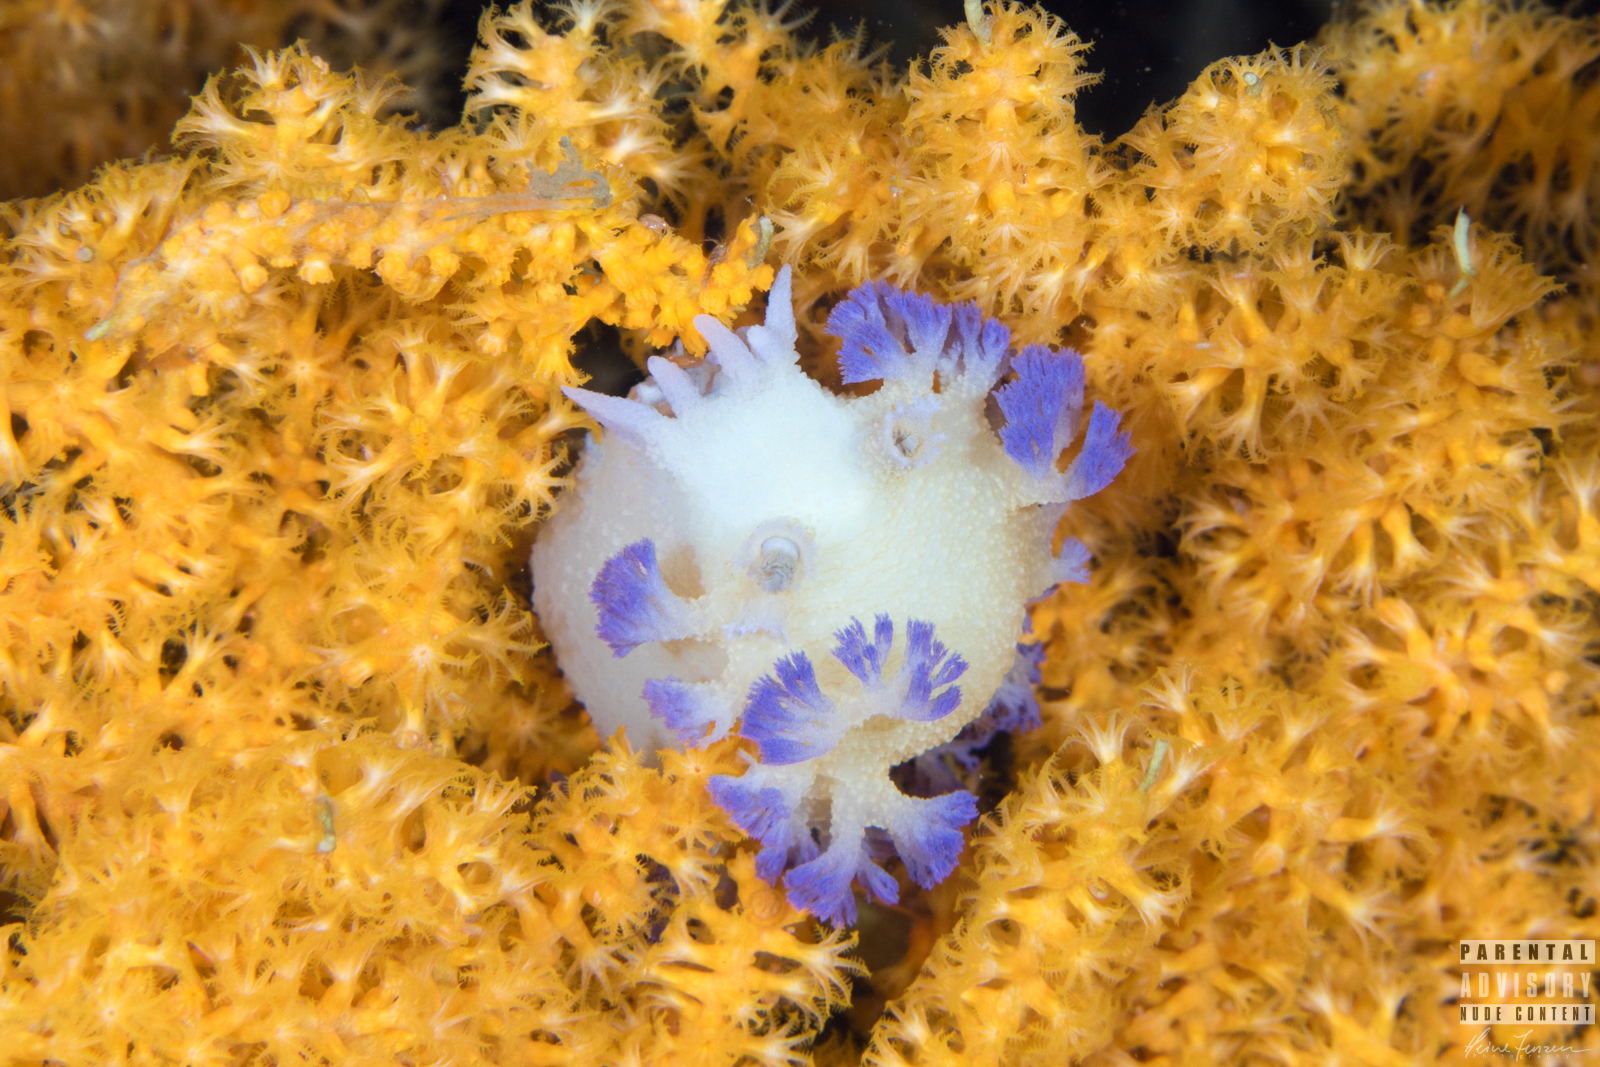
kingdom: Animalia
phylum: Mollusca
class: Gastropoda
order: Nudibranchia
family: Tritoniidae
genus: Tritonia
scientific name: Tritonia griegi
